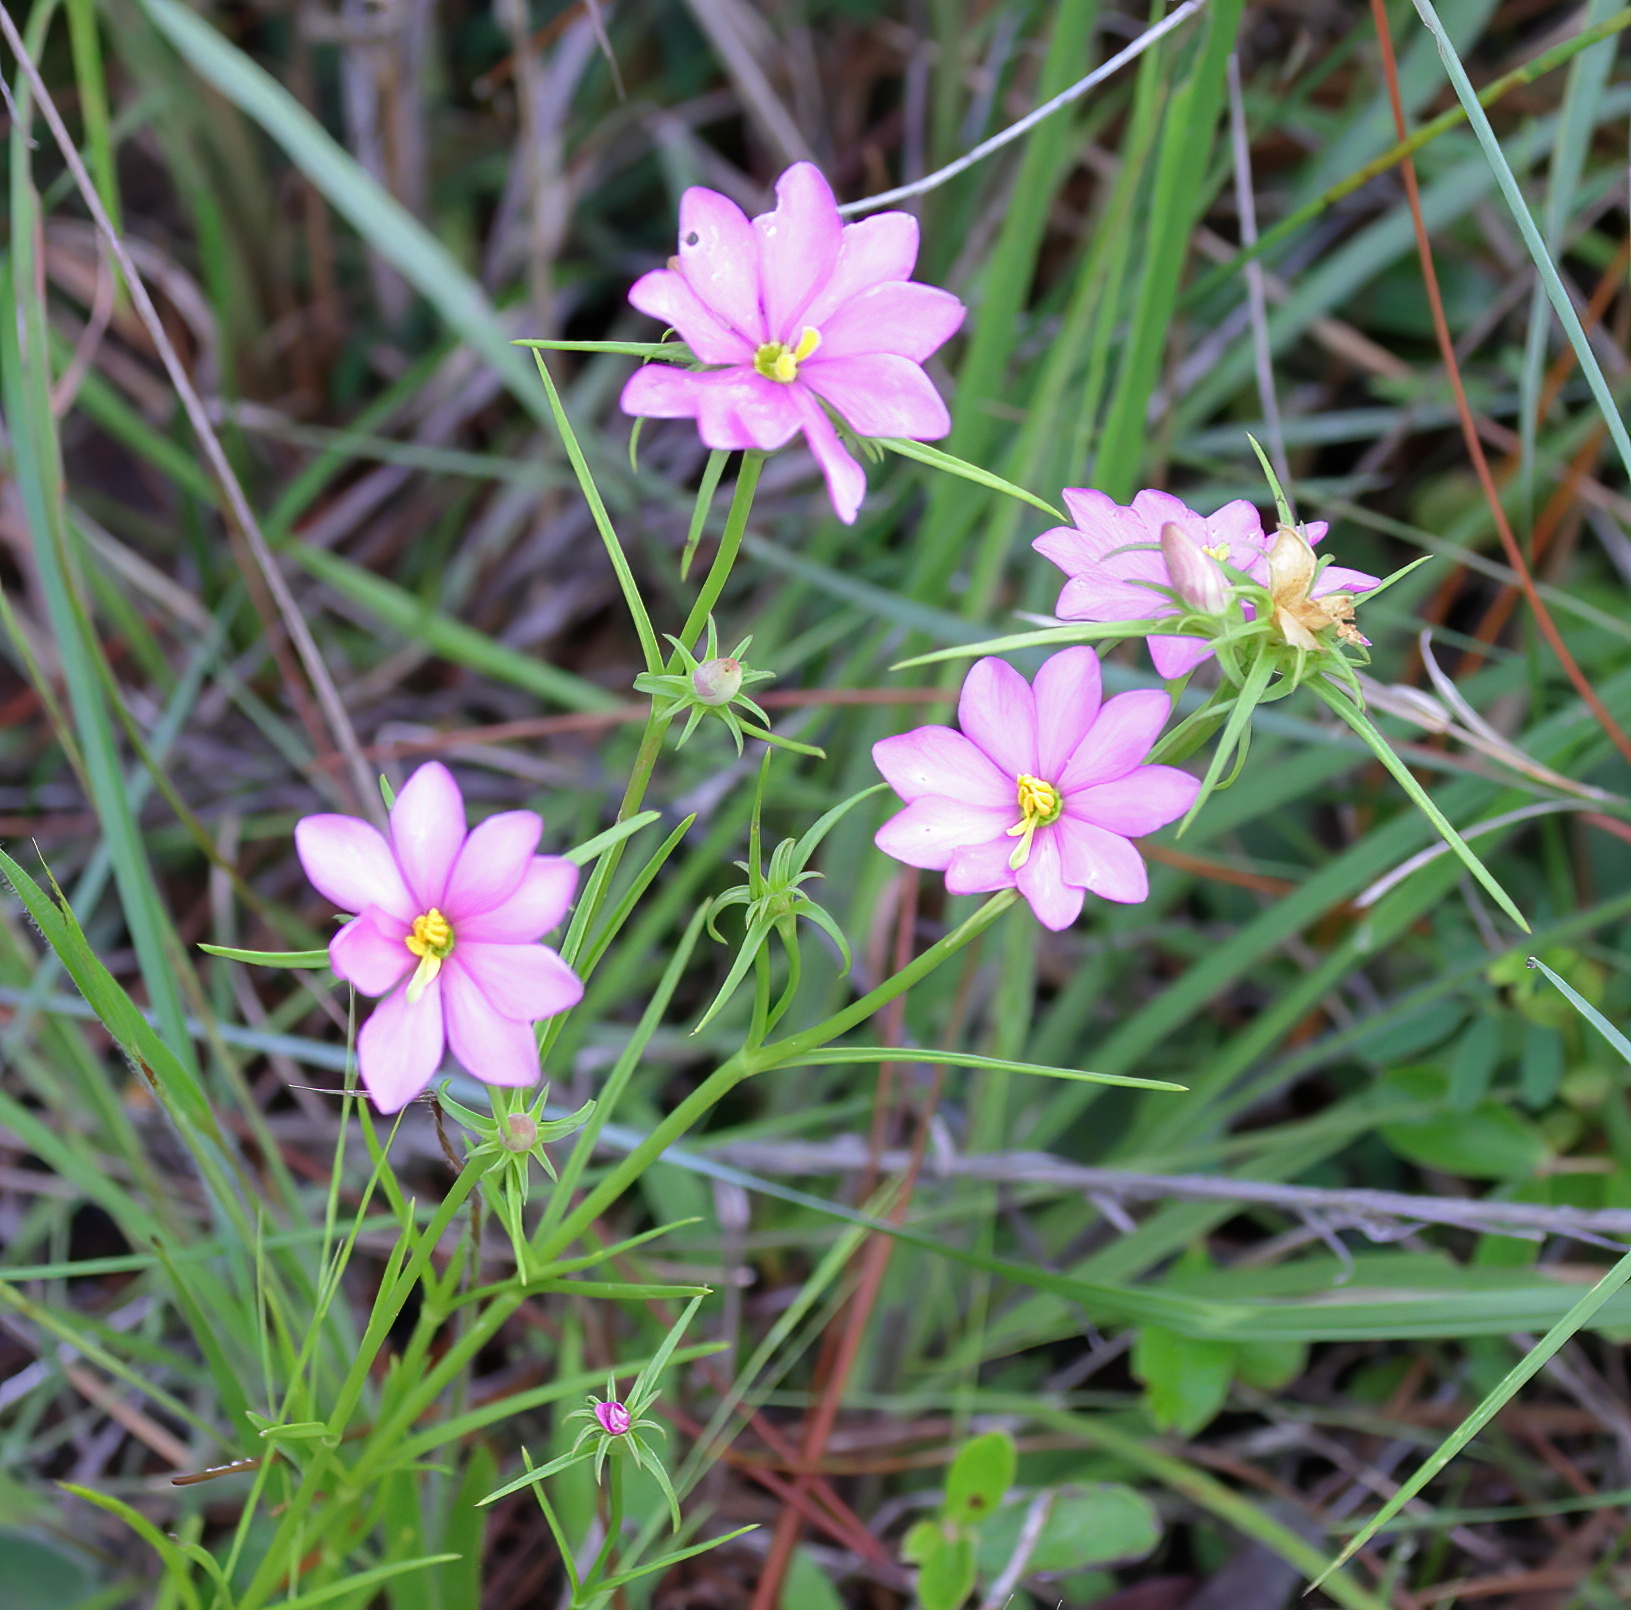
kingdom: Plantae
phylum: Tracheophyta
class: Magnoliopsida
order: Gentianales
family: Gentianaceae
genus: Sabatia
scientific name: Sabatia gentianoides
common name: Pinewoods rose-gentian
